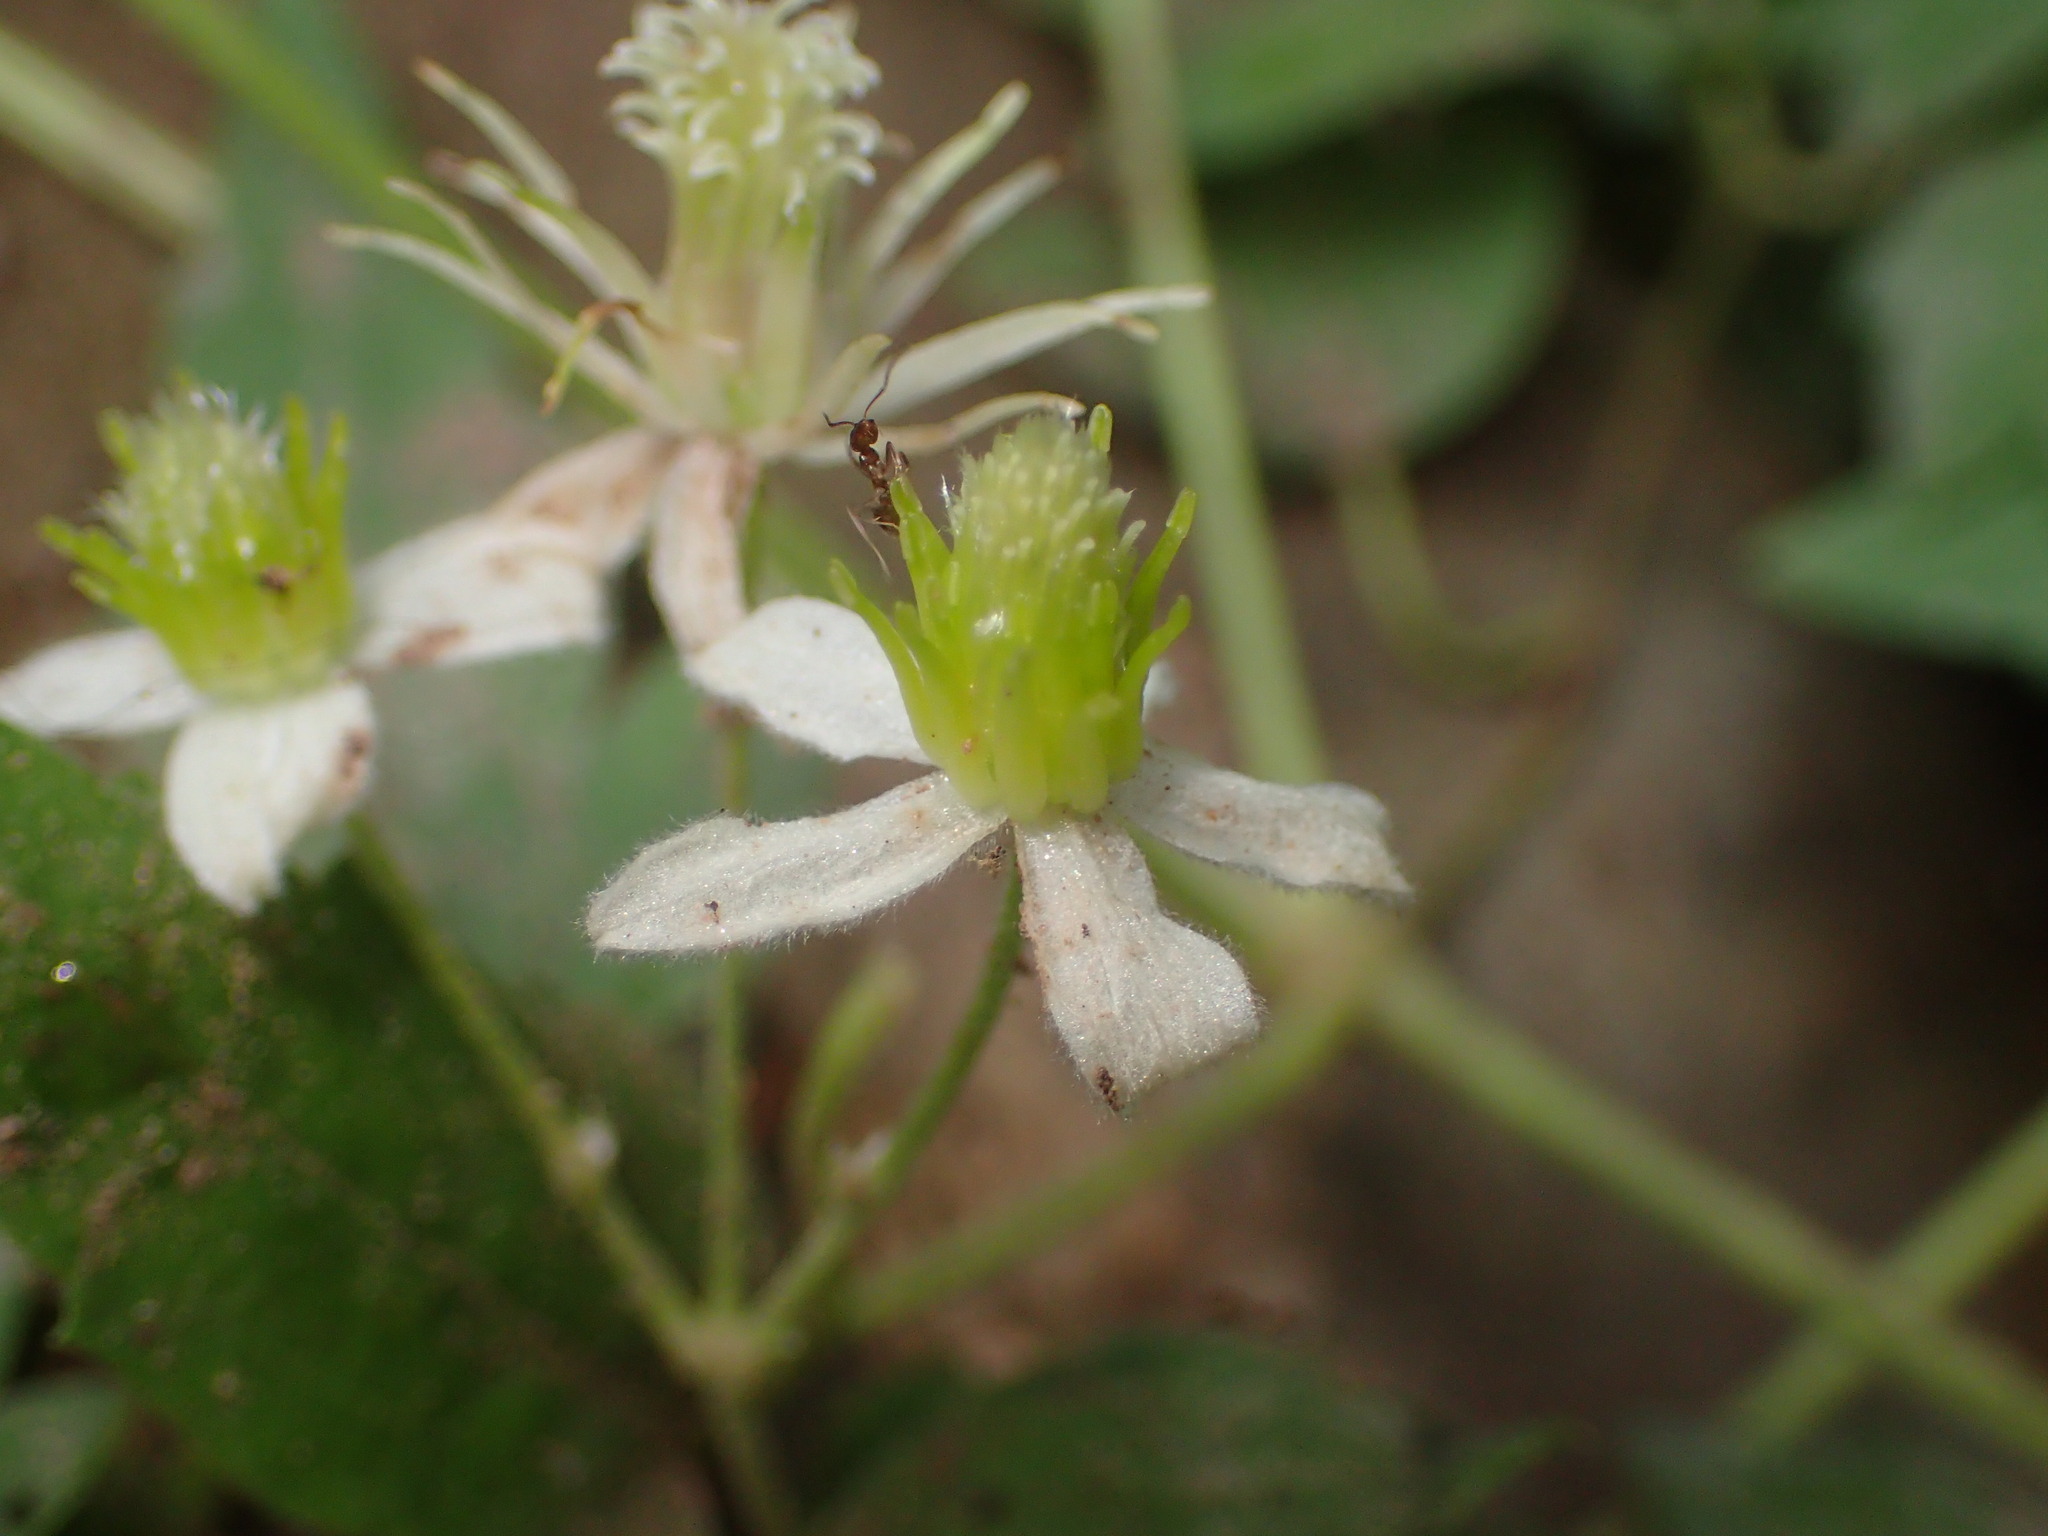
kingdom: Plantae
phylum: Tracheophyta
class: Magnoliopsida
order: Ranunculales
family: Ranunculaceae
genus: Clematis
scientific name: Clematis ligusticifolia
